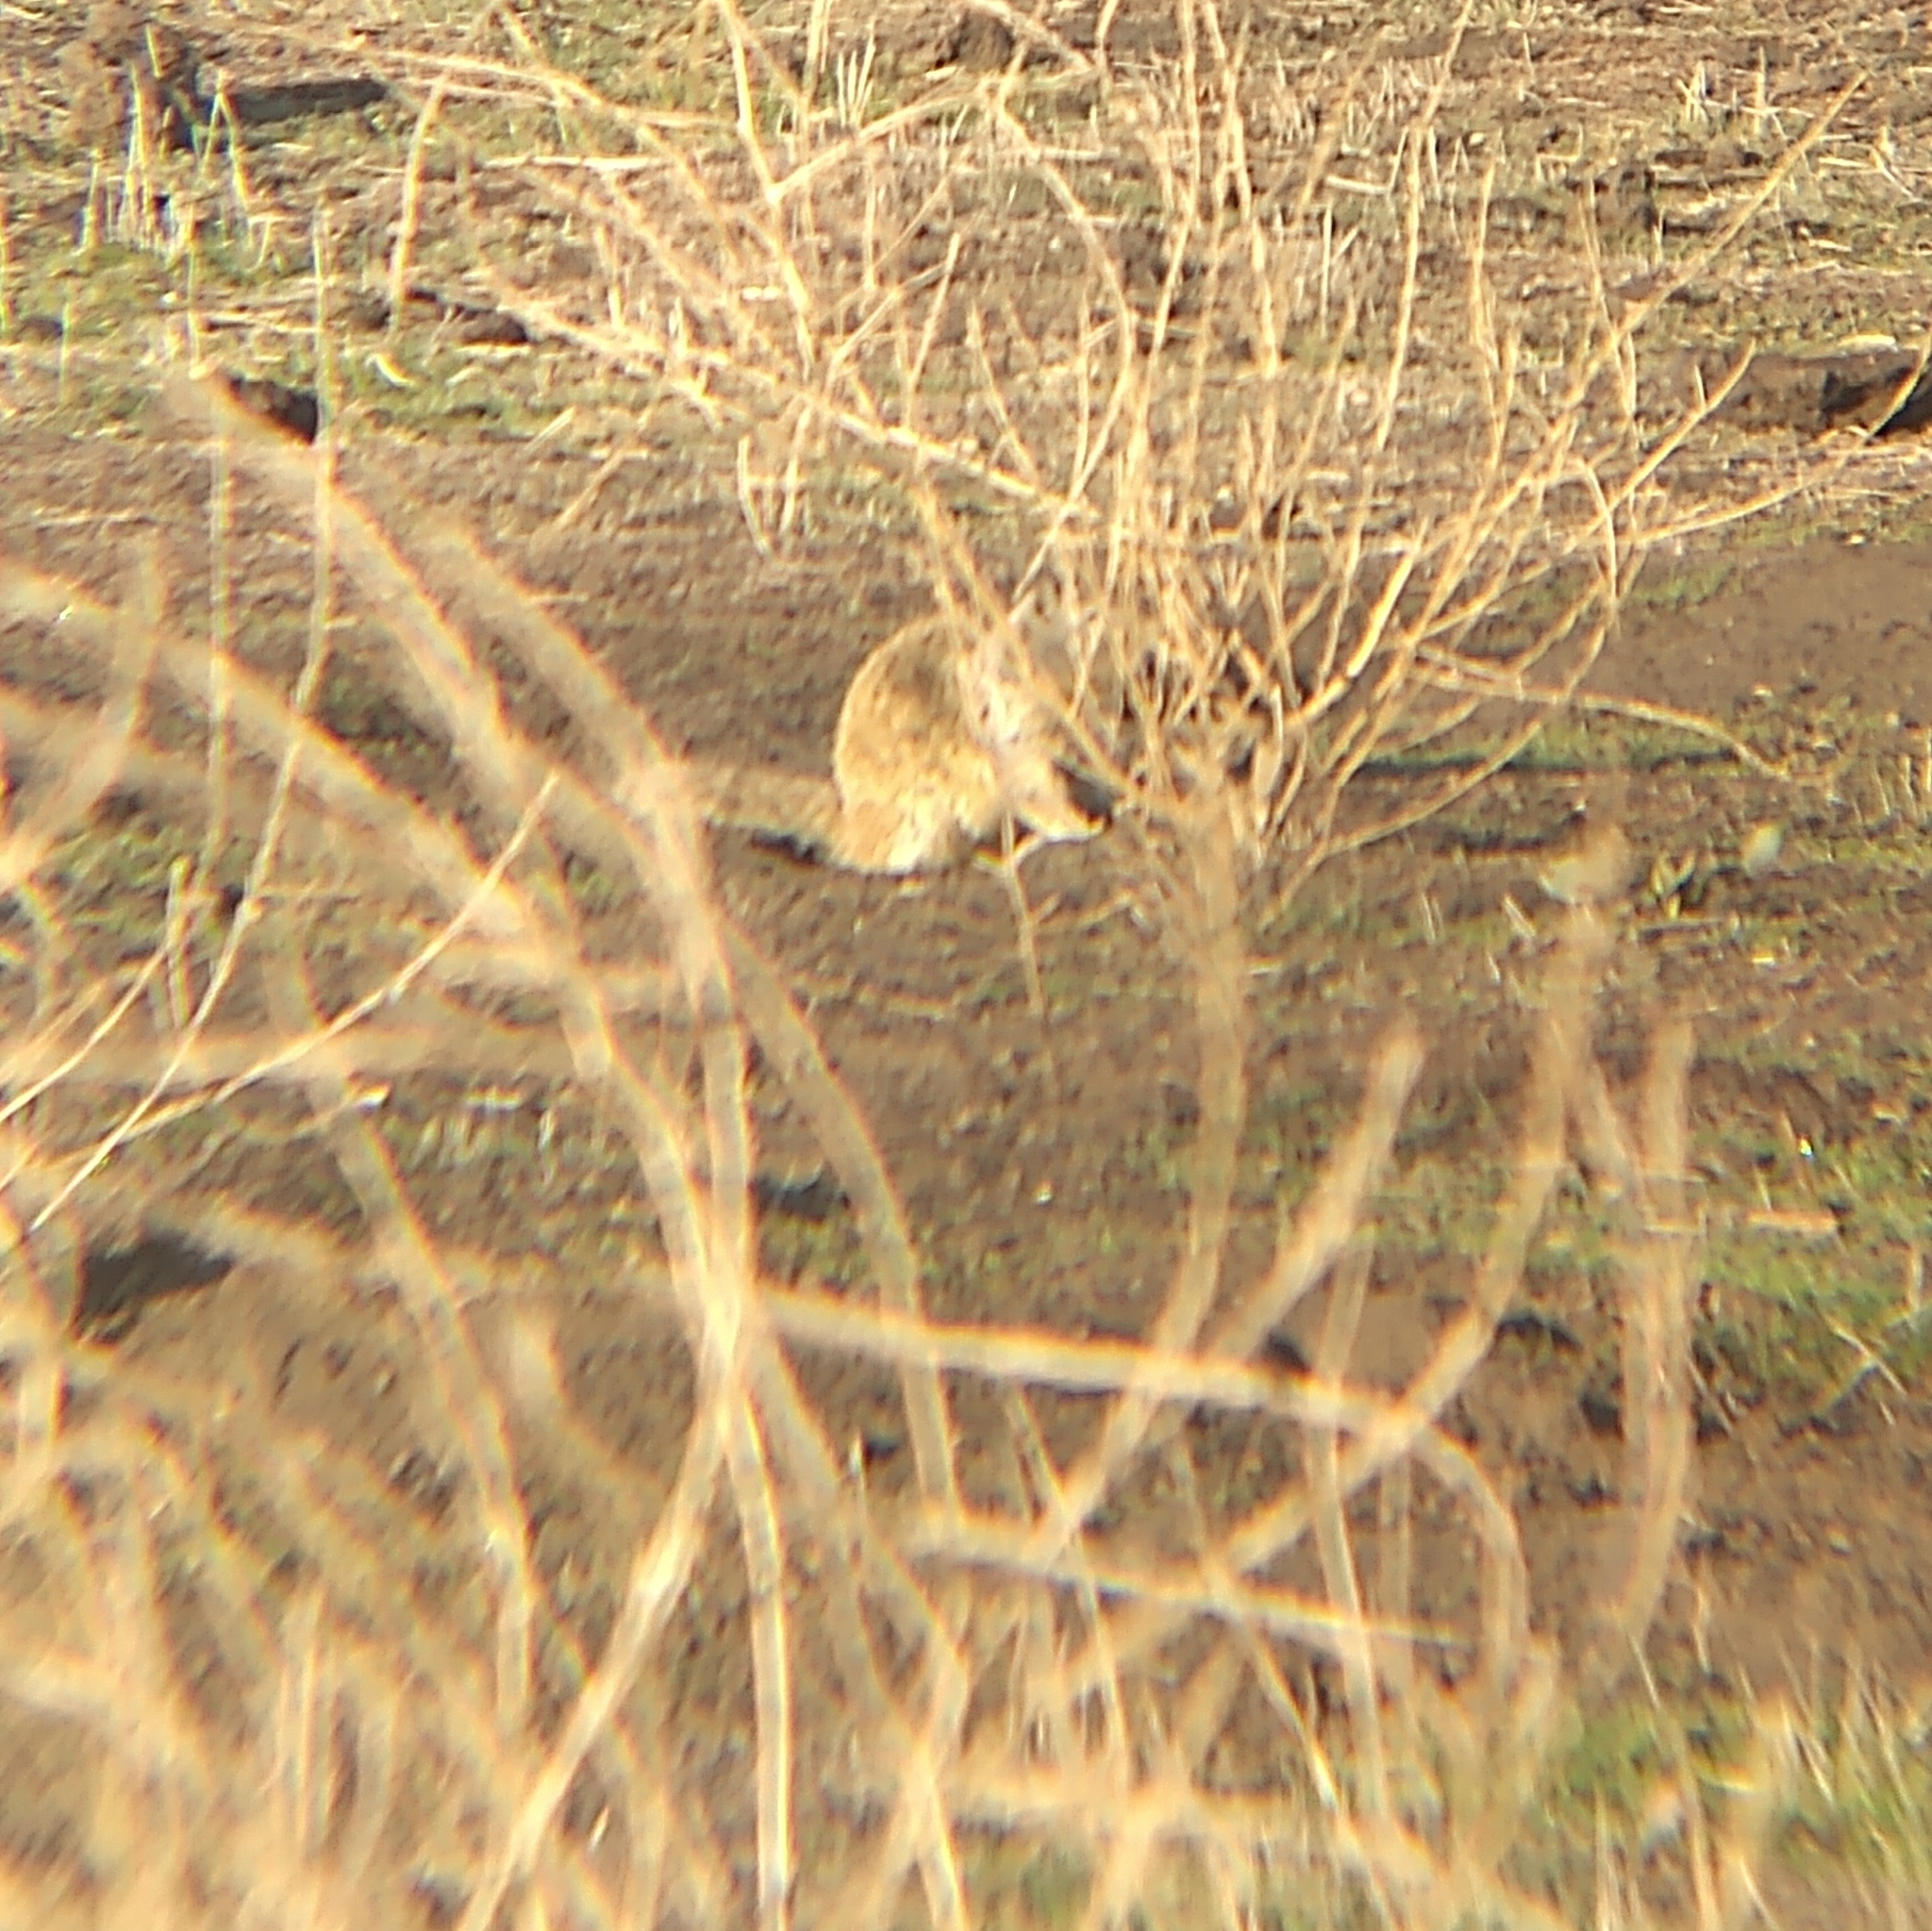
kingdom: Animalia
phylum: Chordata
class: Mammalia
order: Rodentia
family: Sciuridae
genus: Otospermophilus
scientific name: Otospermophilus beecheyi
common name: California ground squirrel
